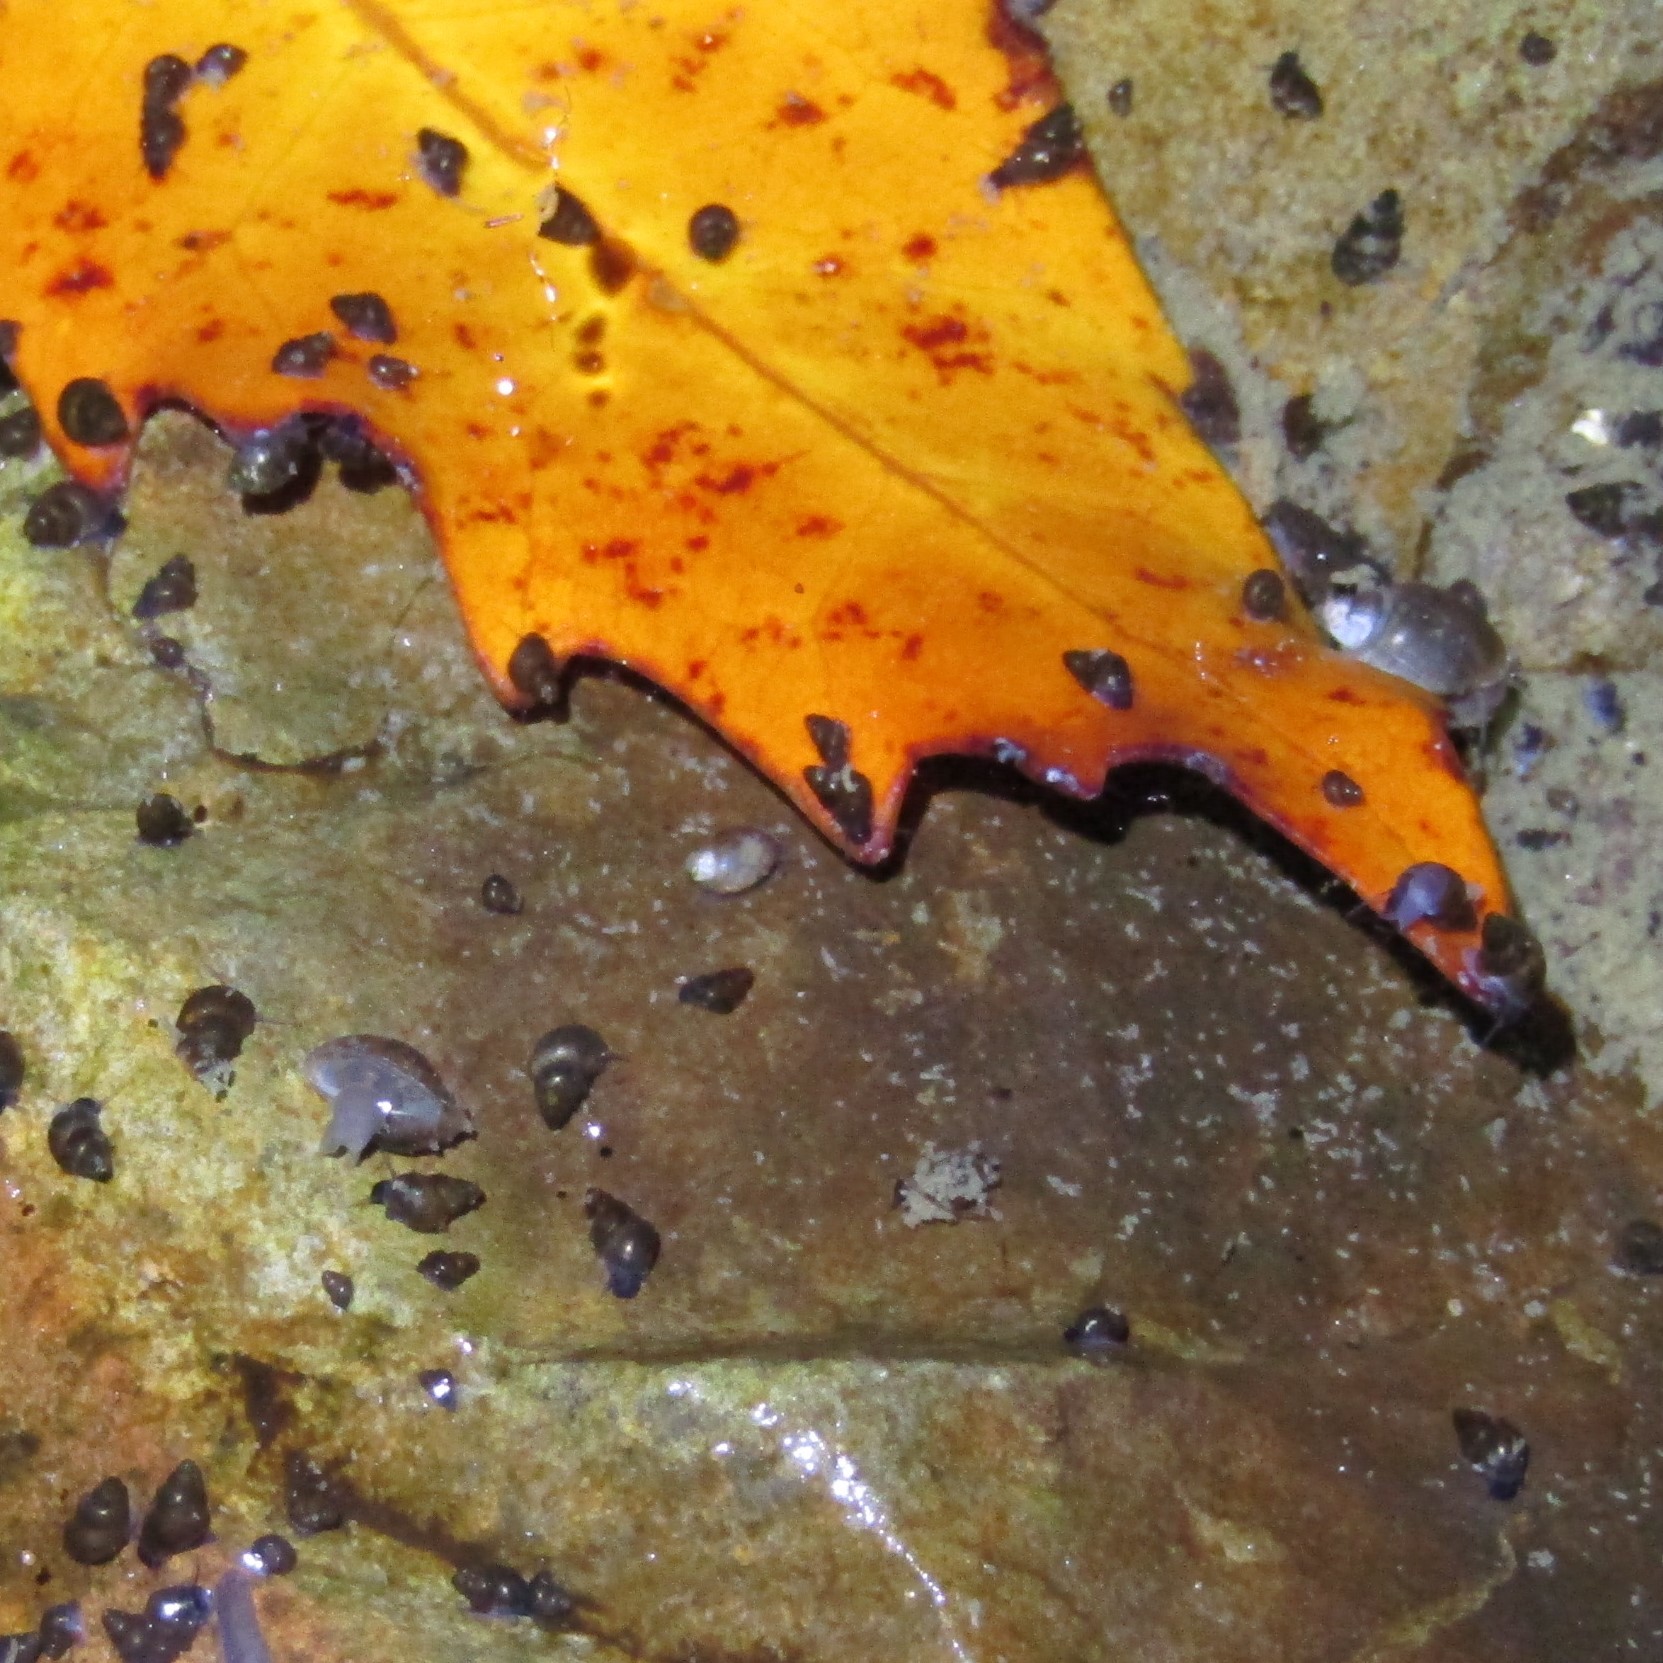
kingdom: Animalia
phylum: Mollusca
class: Gastropoda
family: Physidae
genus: Physella
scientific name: Physella acuta
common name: European physa
